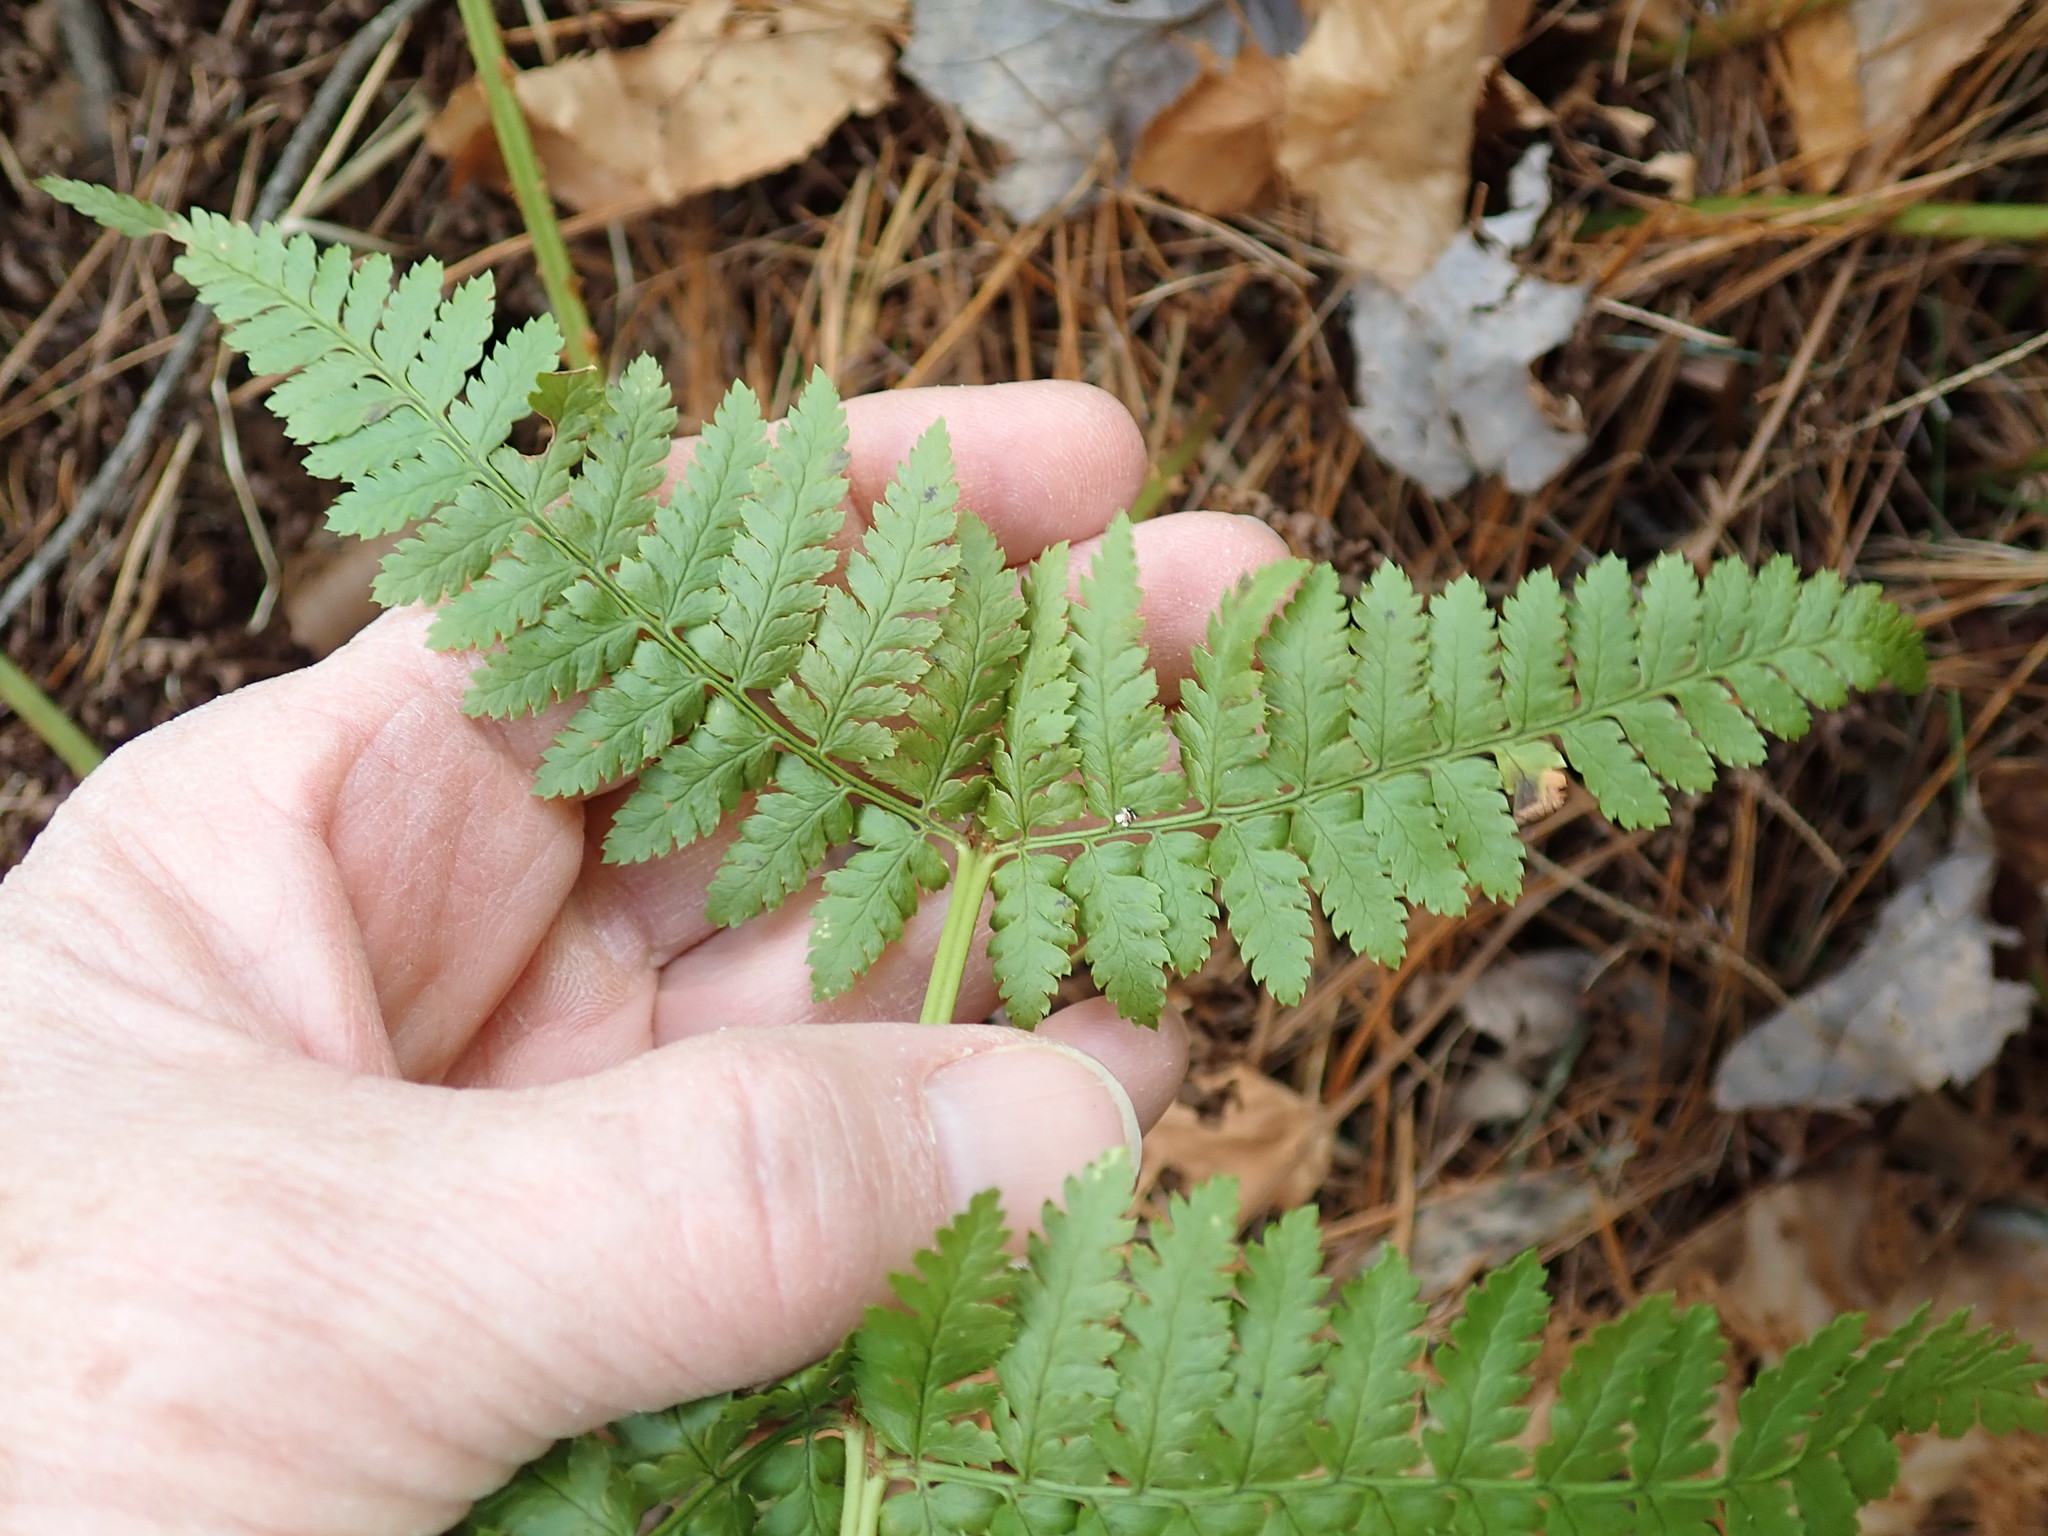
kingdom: Plantae
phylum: Tracheophyta
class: Polypodiopsida
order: Polypodiales
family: Dryopteridaceae
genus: Dryopteris
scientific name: Dryopteris intermedia
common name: Evergreen wood fern
